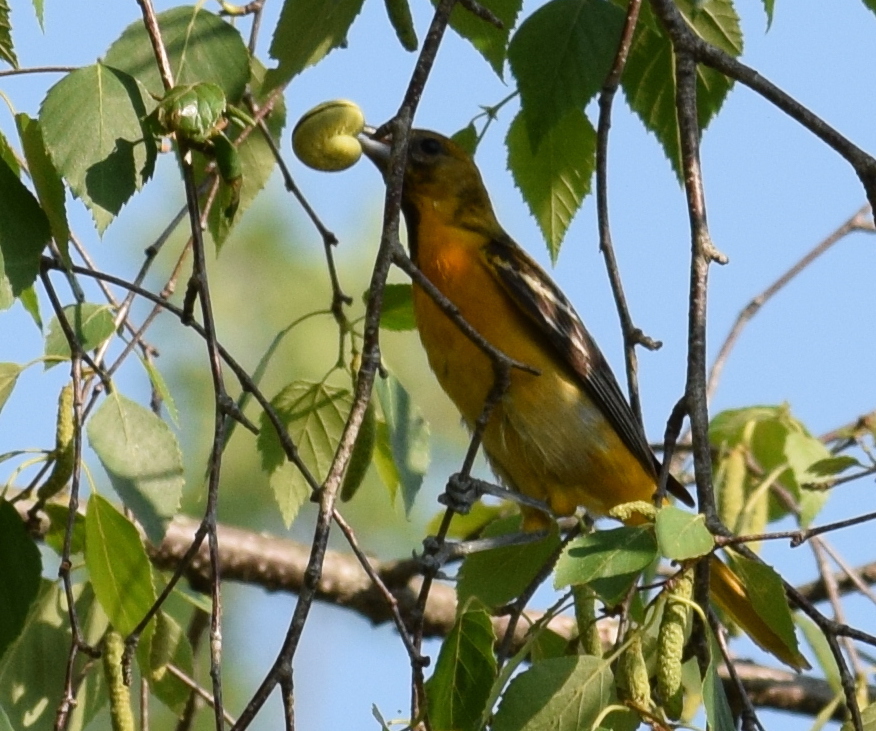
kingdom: Animalia
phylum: Chordata
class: Aves
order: Passeriformes
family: Icteridae
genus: Icterus
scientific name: Icterus galbula
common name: Baltimore oriole
